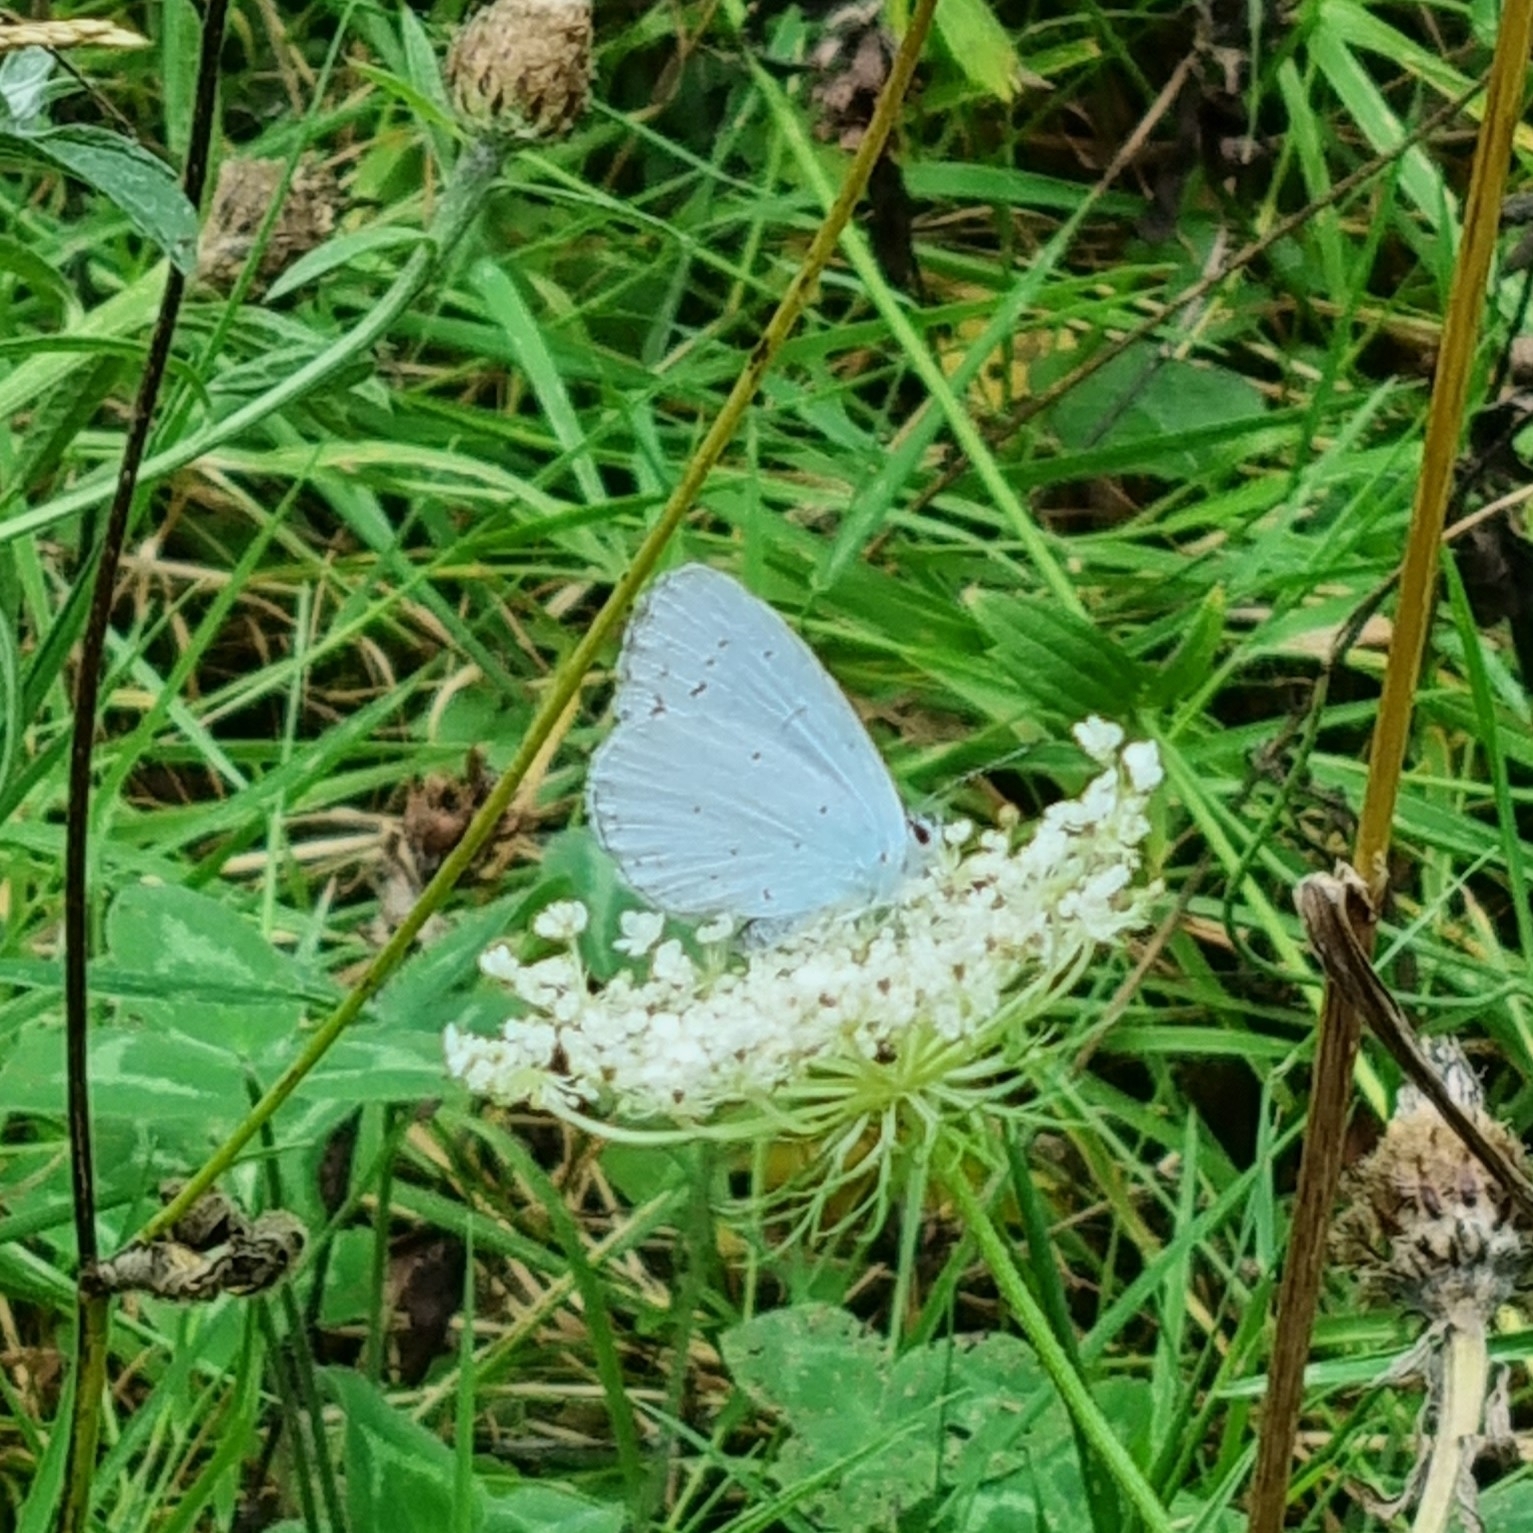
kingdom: Animalia
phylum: Arthropoda
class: Insecta
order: Lepidoptera
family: Lycaenidae
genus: Celastrina
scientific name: Celastrina argiolus
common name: Holly blue
